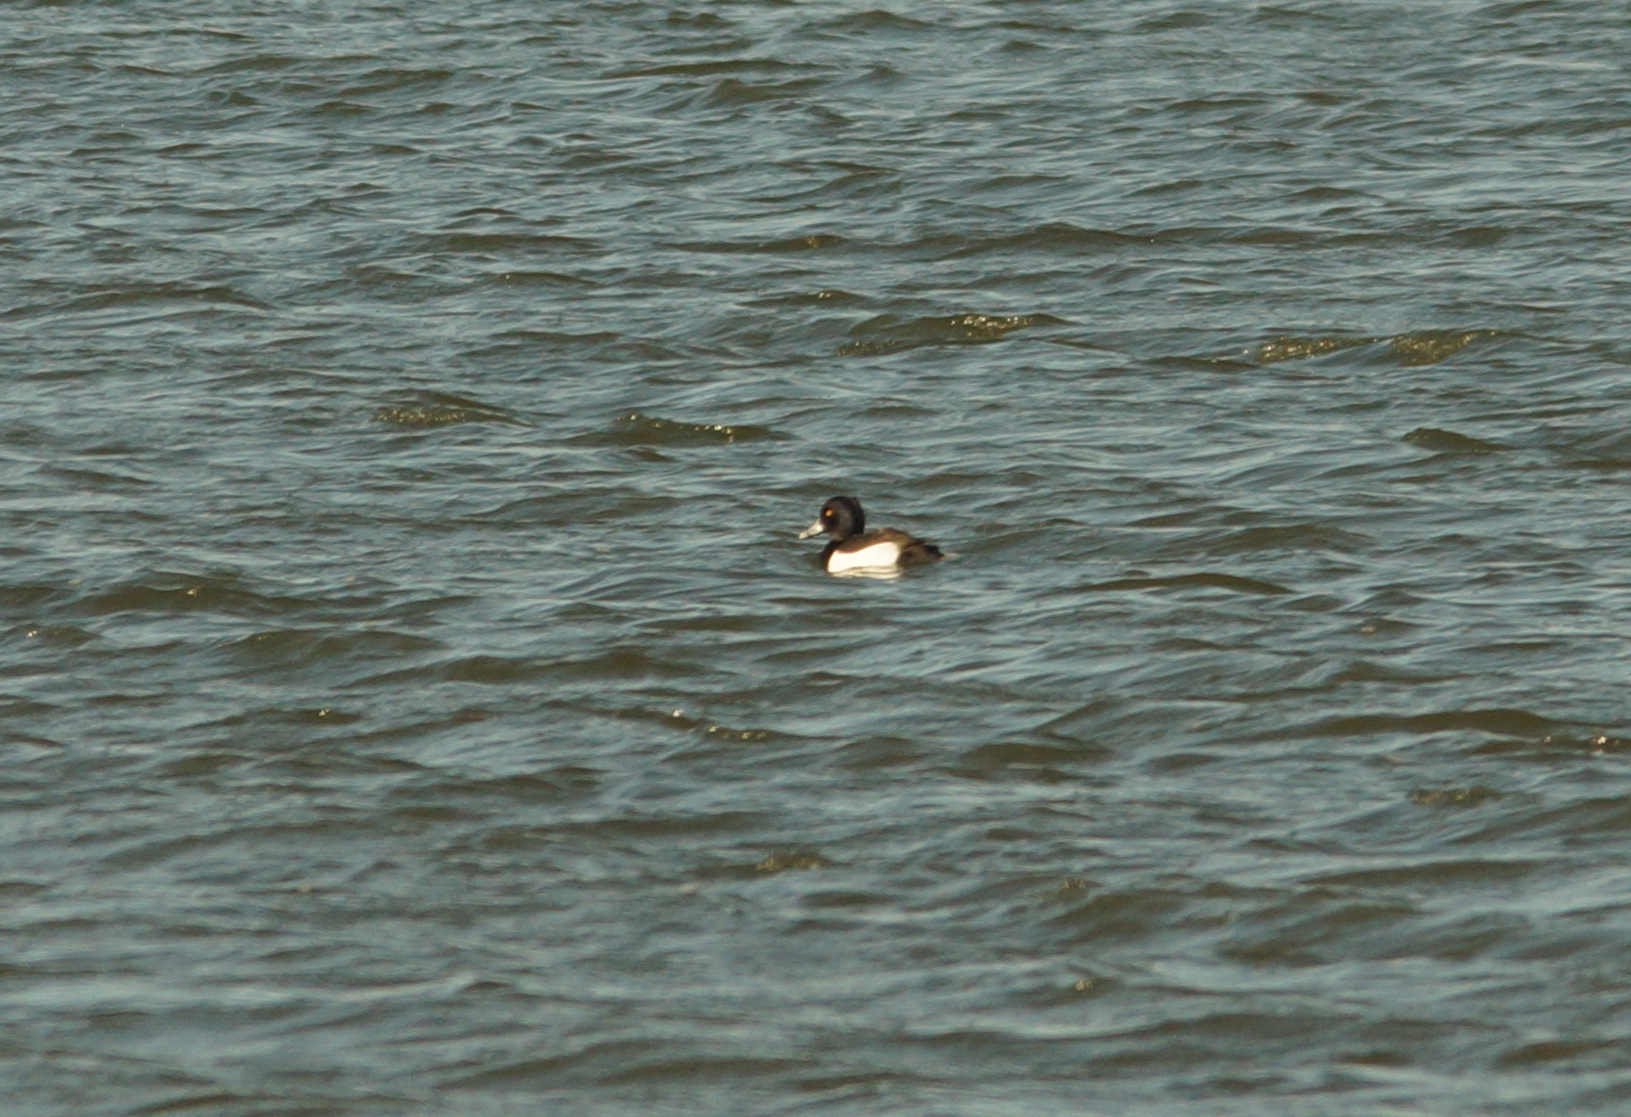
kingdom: Animalia
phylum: Chordata
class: Aves
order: Anseriformes
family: Anatidae
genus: Aythya
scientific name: Aythya fuligula
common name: Tufted duck
